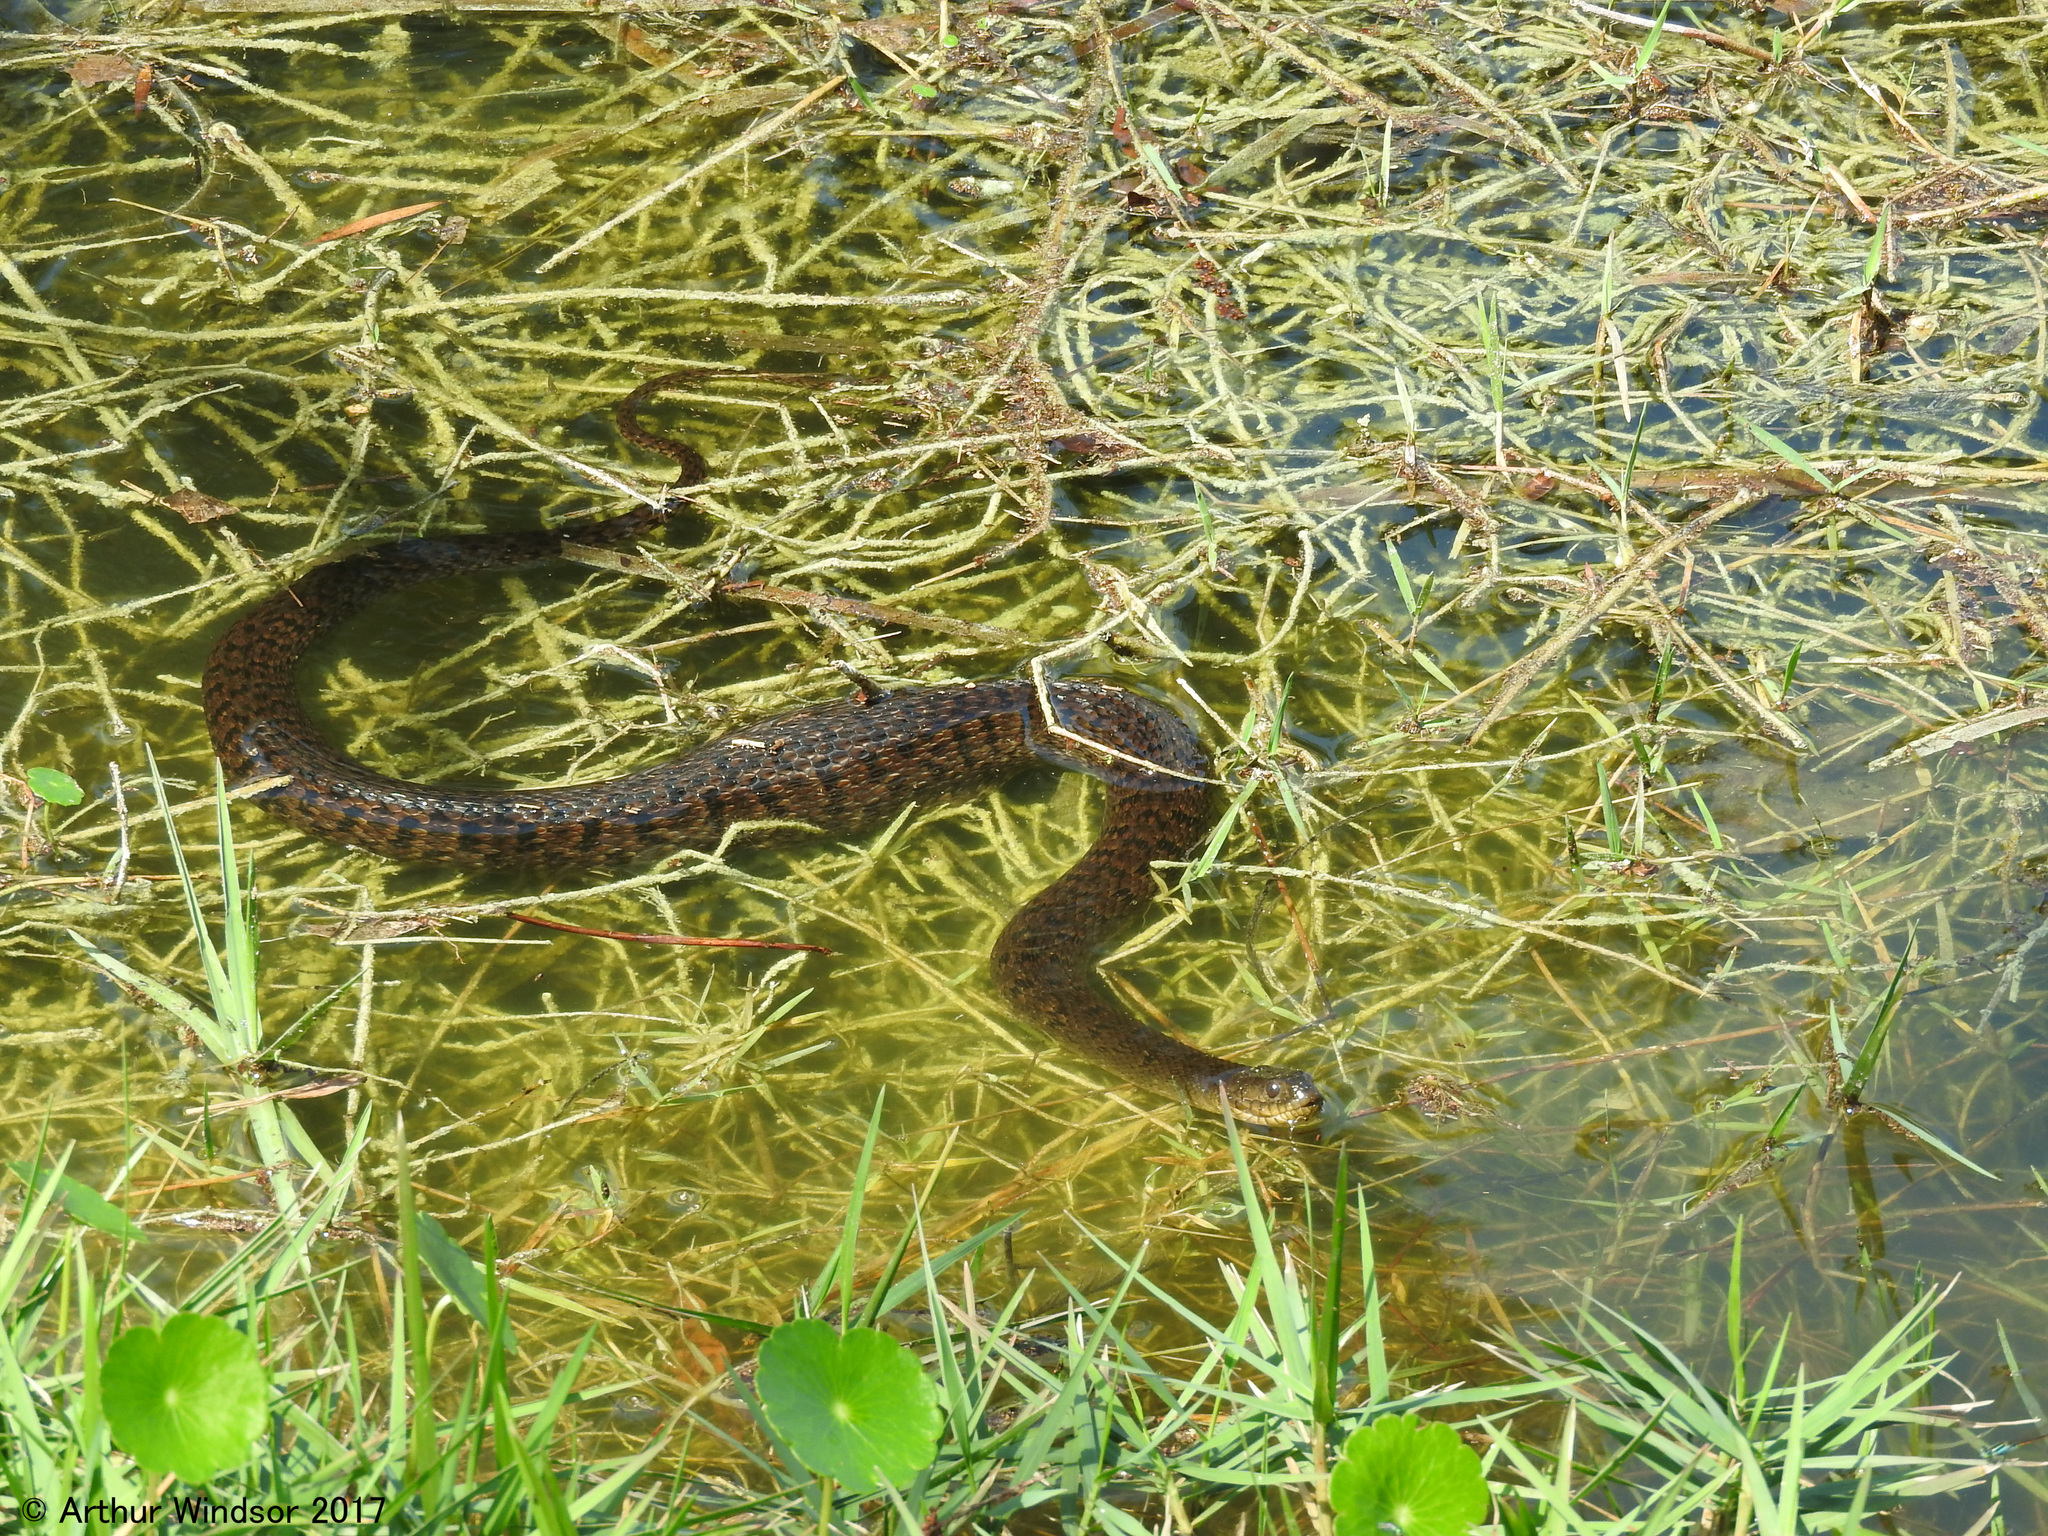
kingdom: Animalia
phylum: Chordata
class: Squamata
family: Colubridae
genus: Nerodia
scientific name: Nerodia floridana
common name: Florida green watersnake
